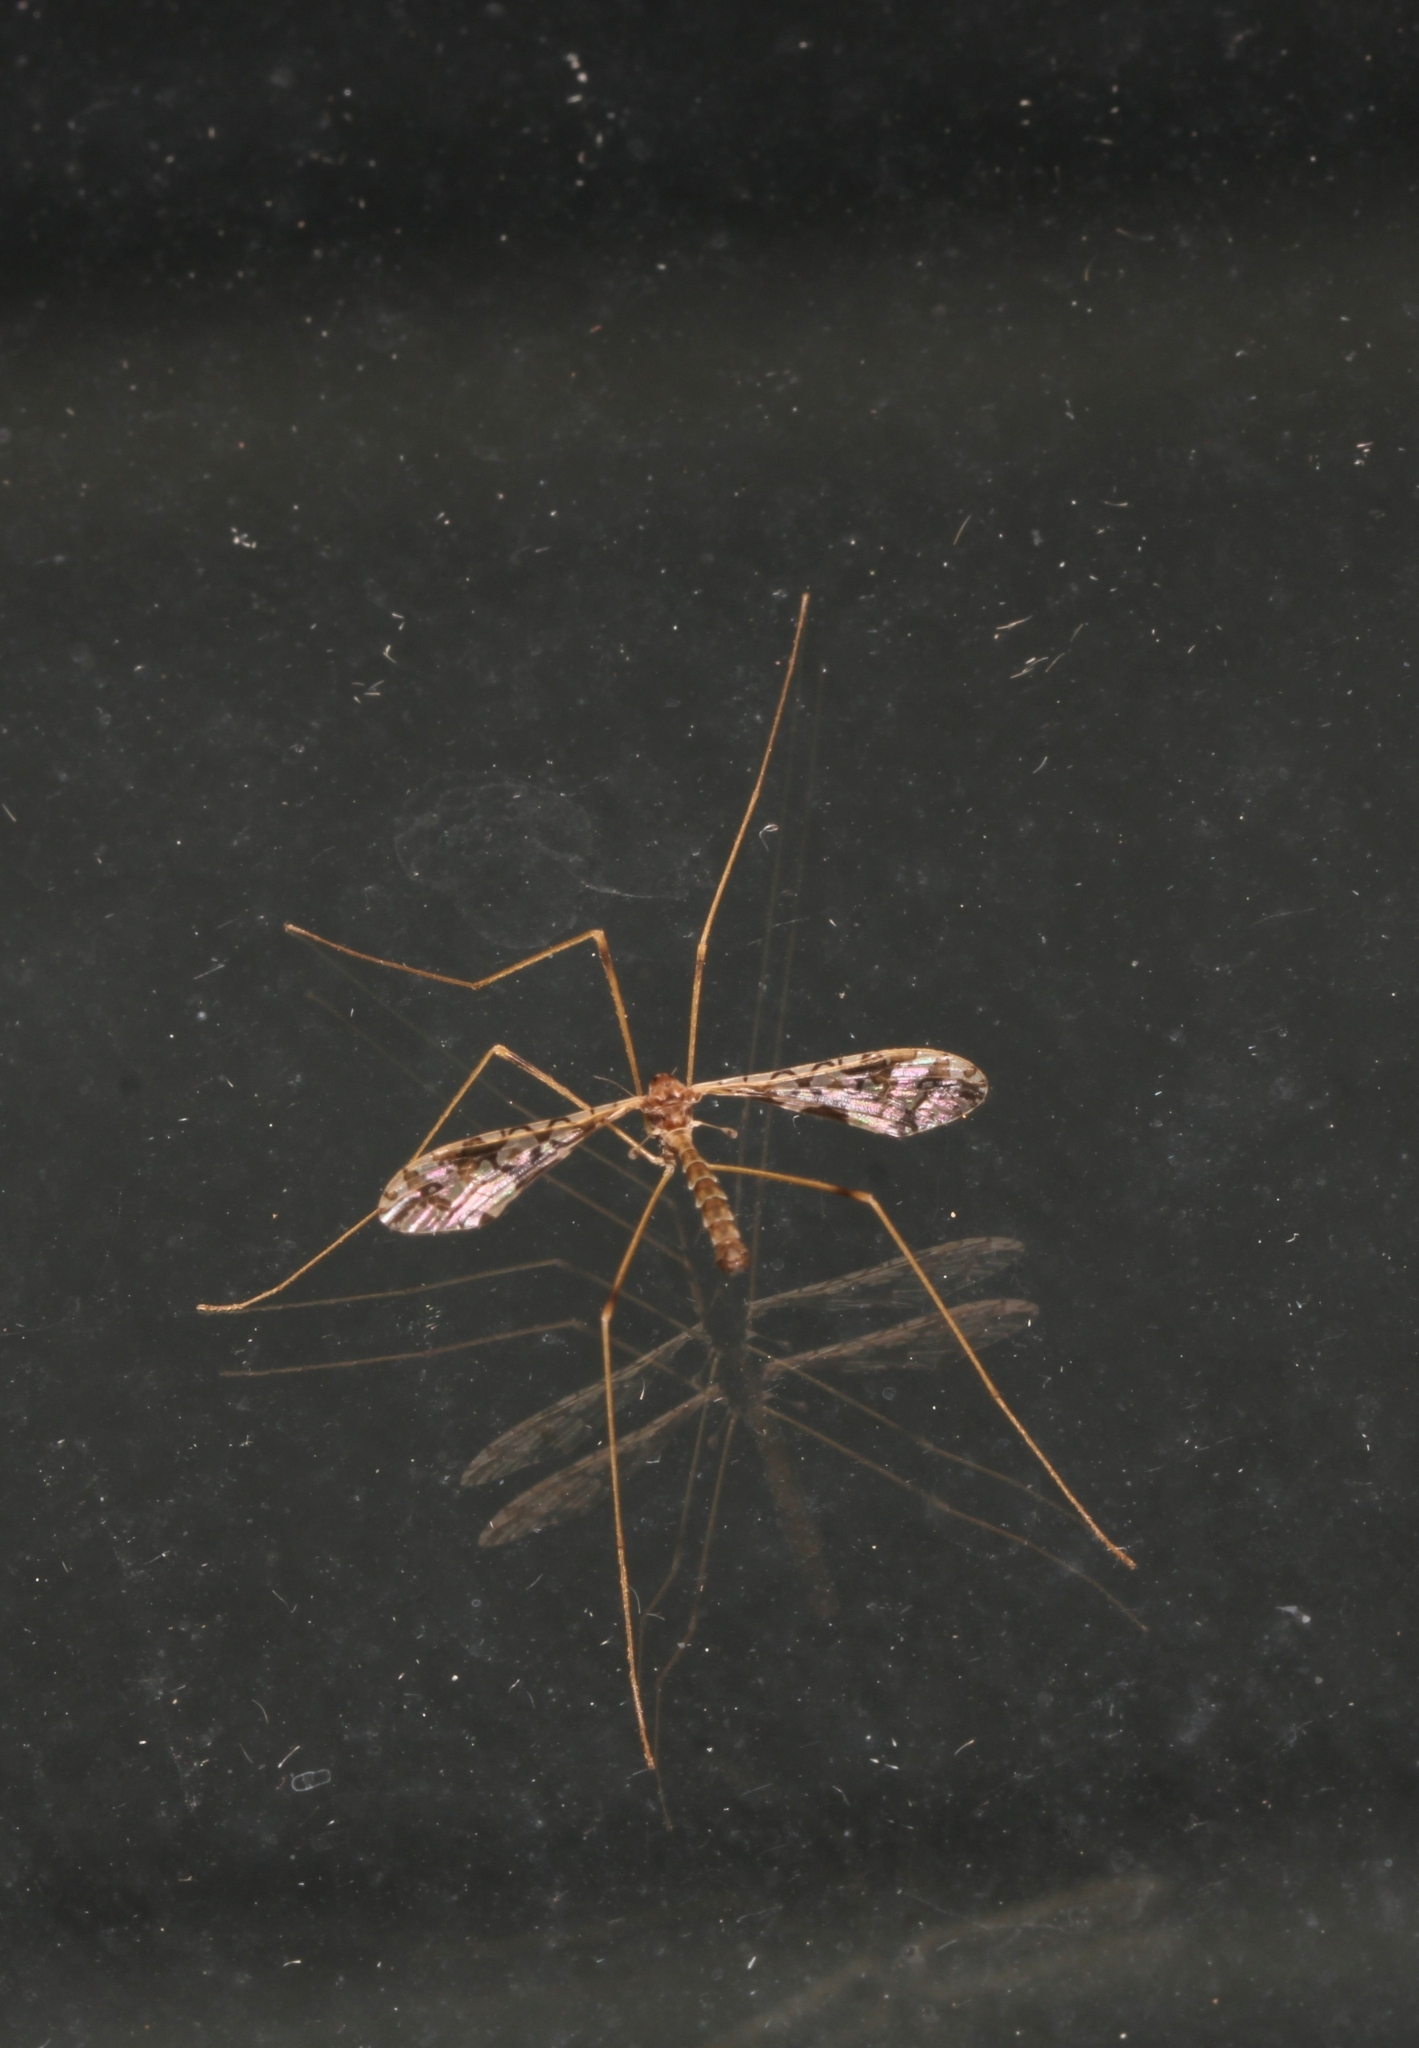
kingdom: Animalia
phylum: Arthropoda
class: Insecta
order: Diptera
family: Limoniidae
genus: Epiphragma
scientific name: Epiphragma solatrix
